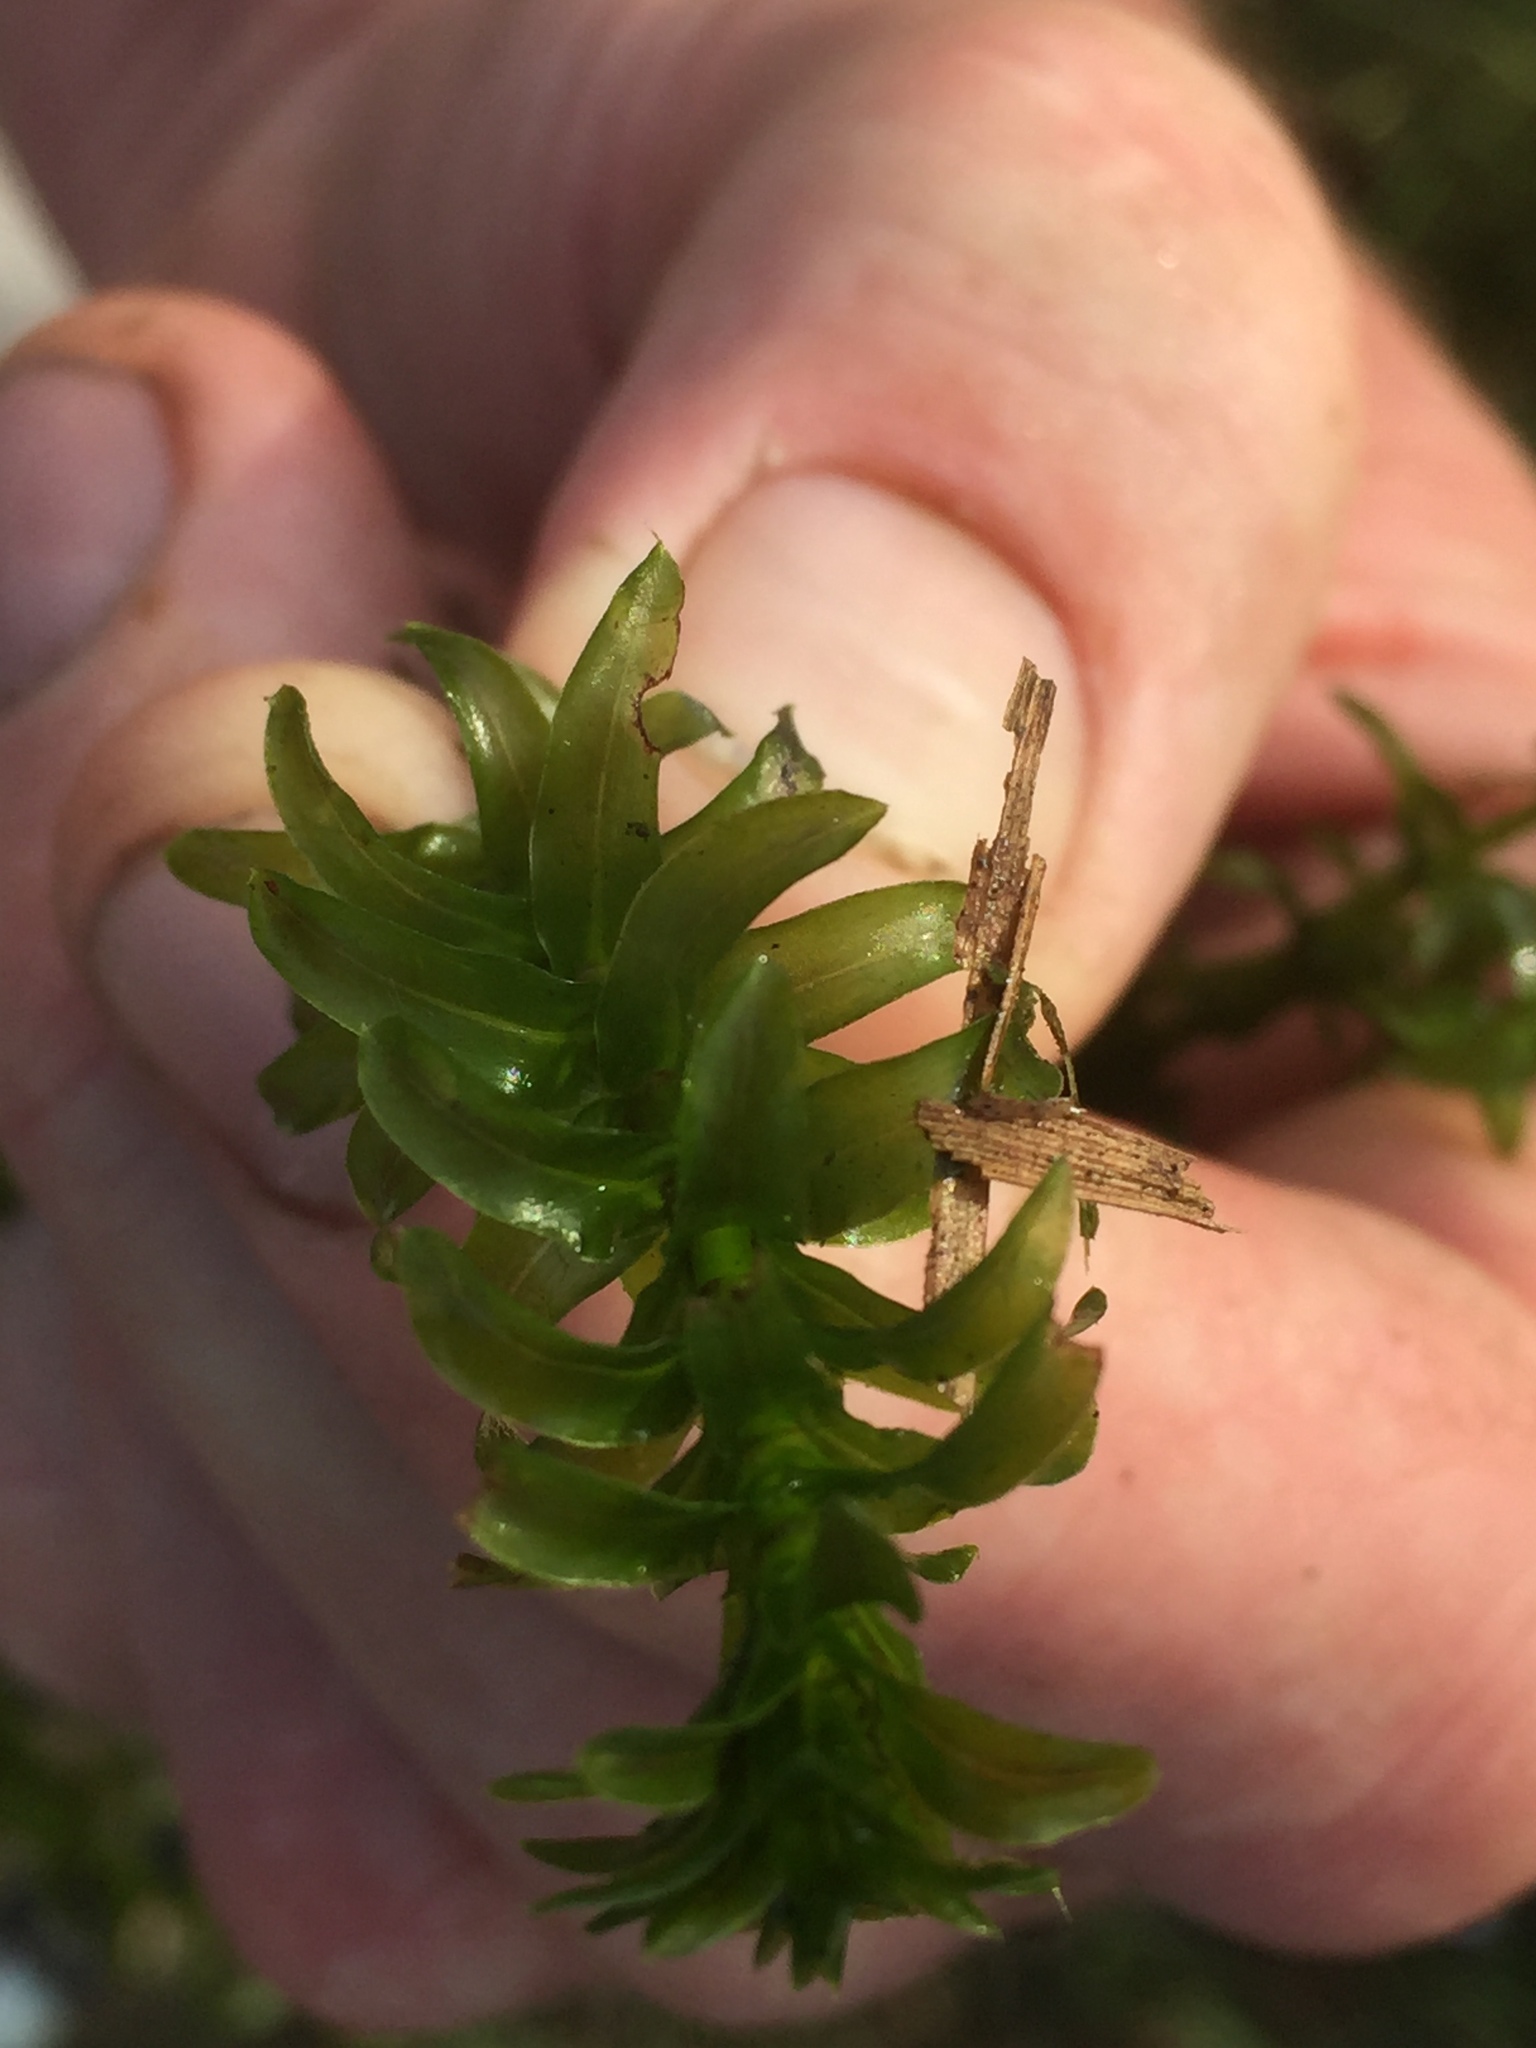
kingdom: Plantae
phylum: Tracheophyta
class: Liliopsida
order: Alismatales
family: Hydrocharitaceae
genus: Elodea
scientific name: Elodea canadensis
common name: Canadian waterweed
